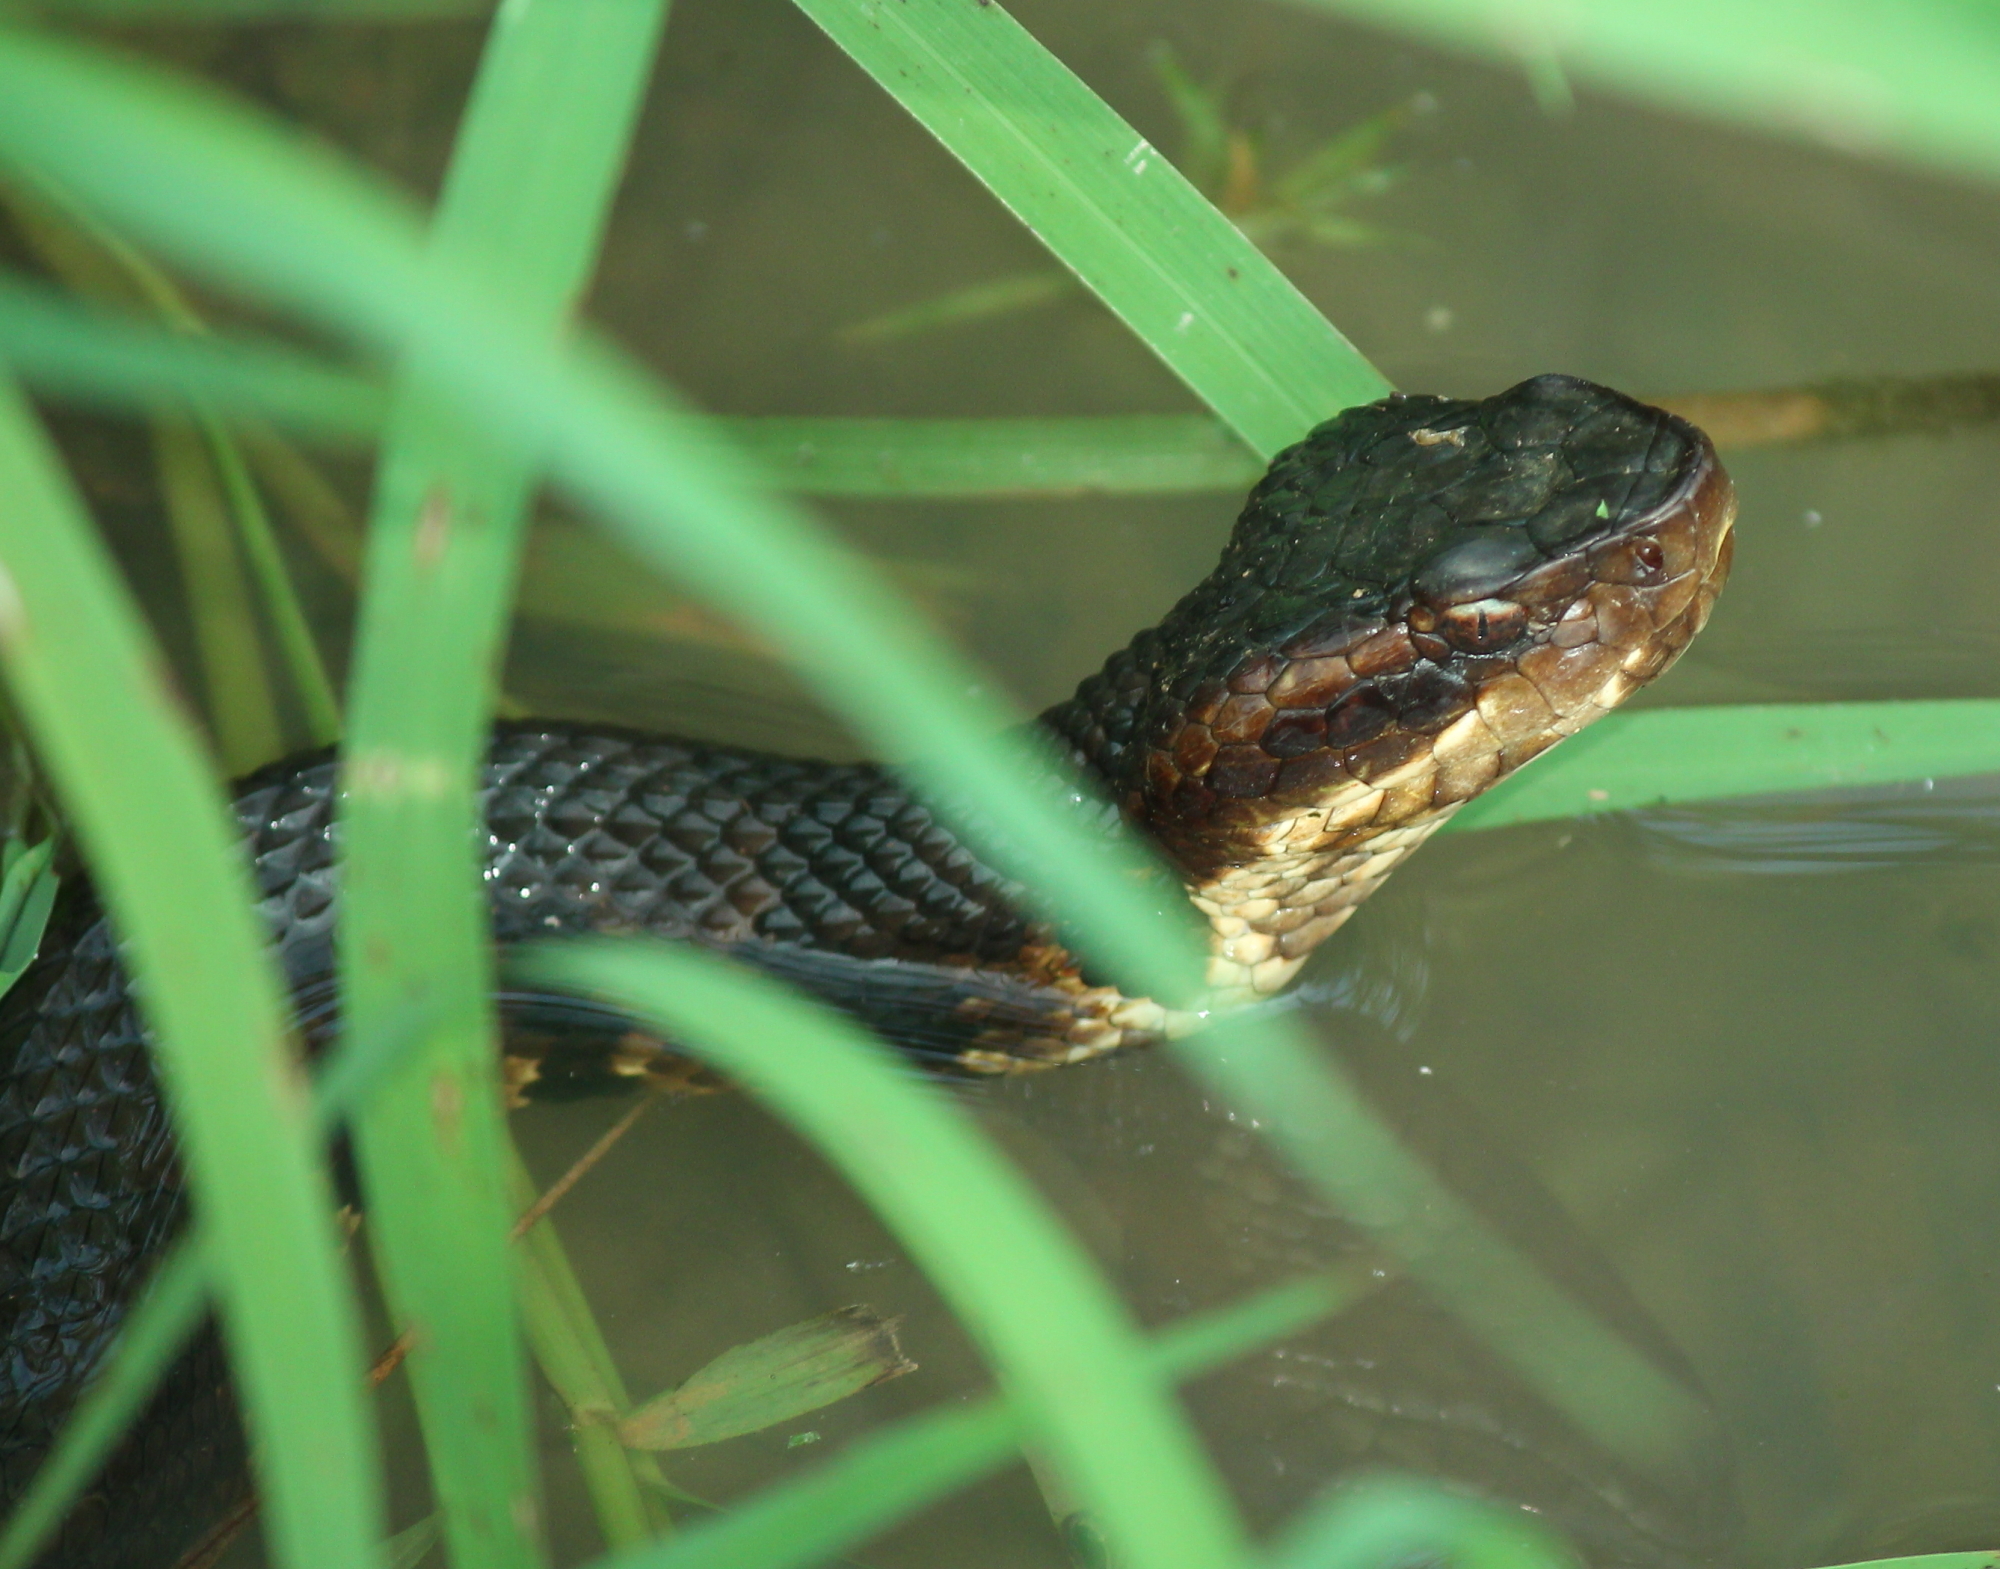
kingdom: Animalia
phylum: Chordata
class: Squamata
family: Viperidae
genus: Agkistrodon
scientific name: Agkistrodon piscivorus
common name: Cottonmouth
